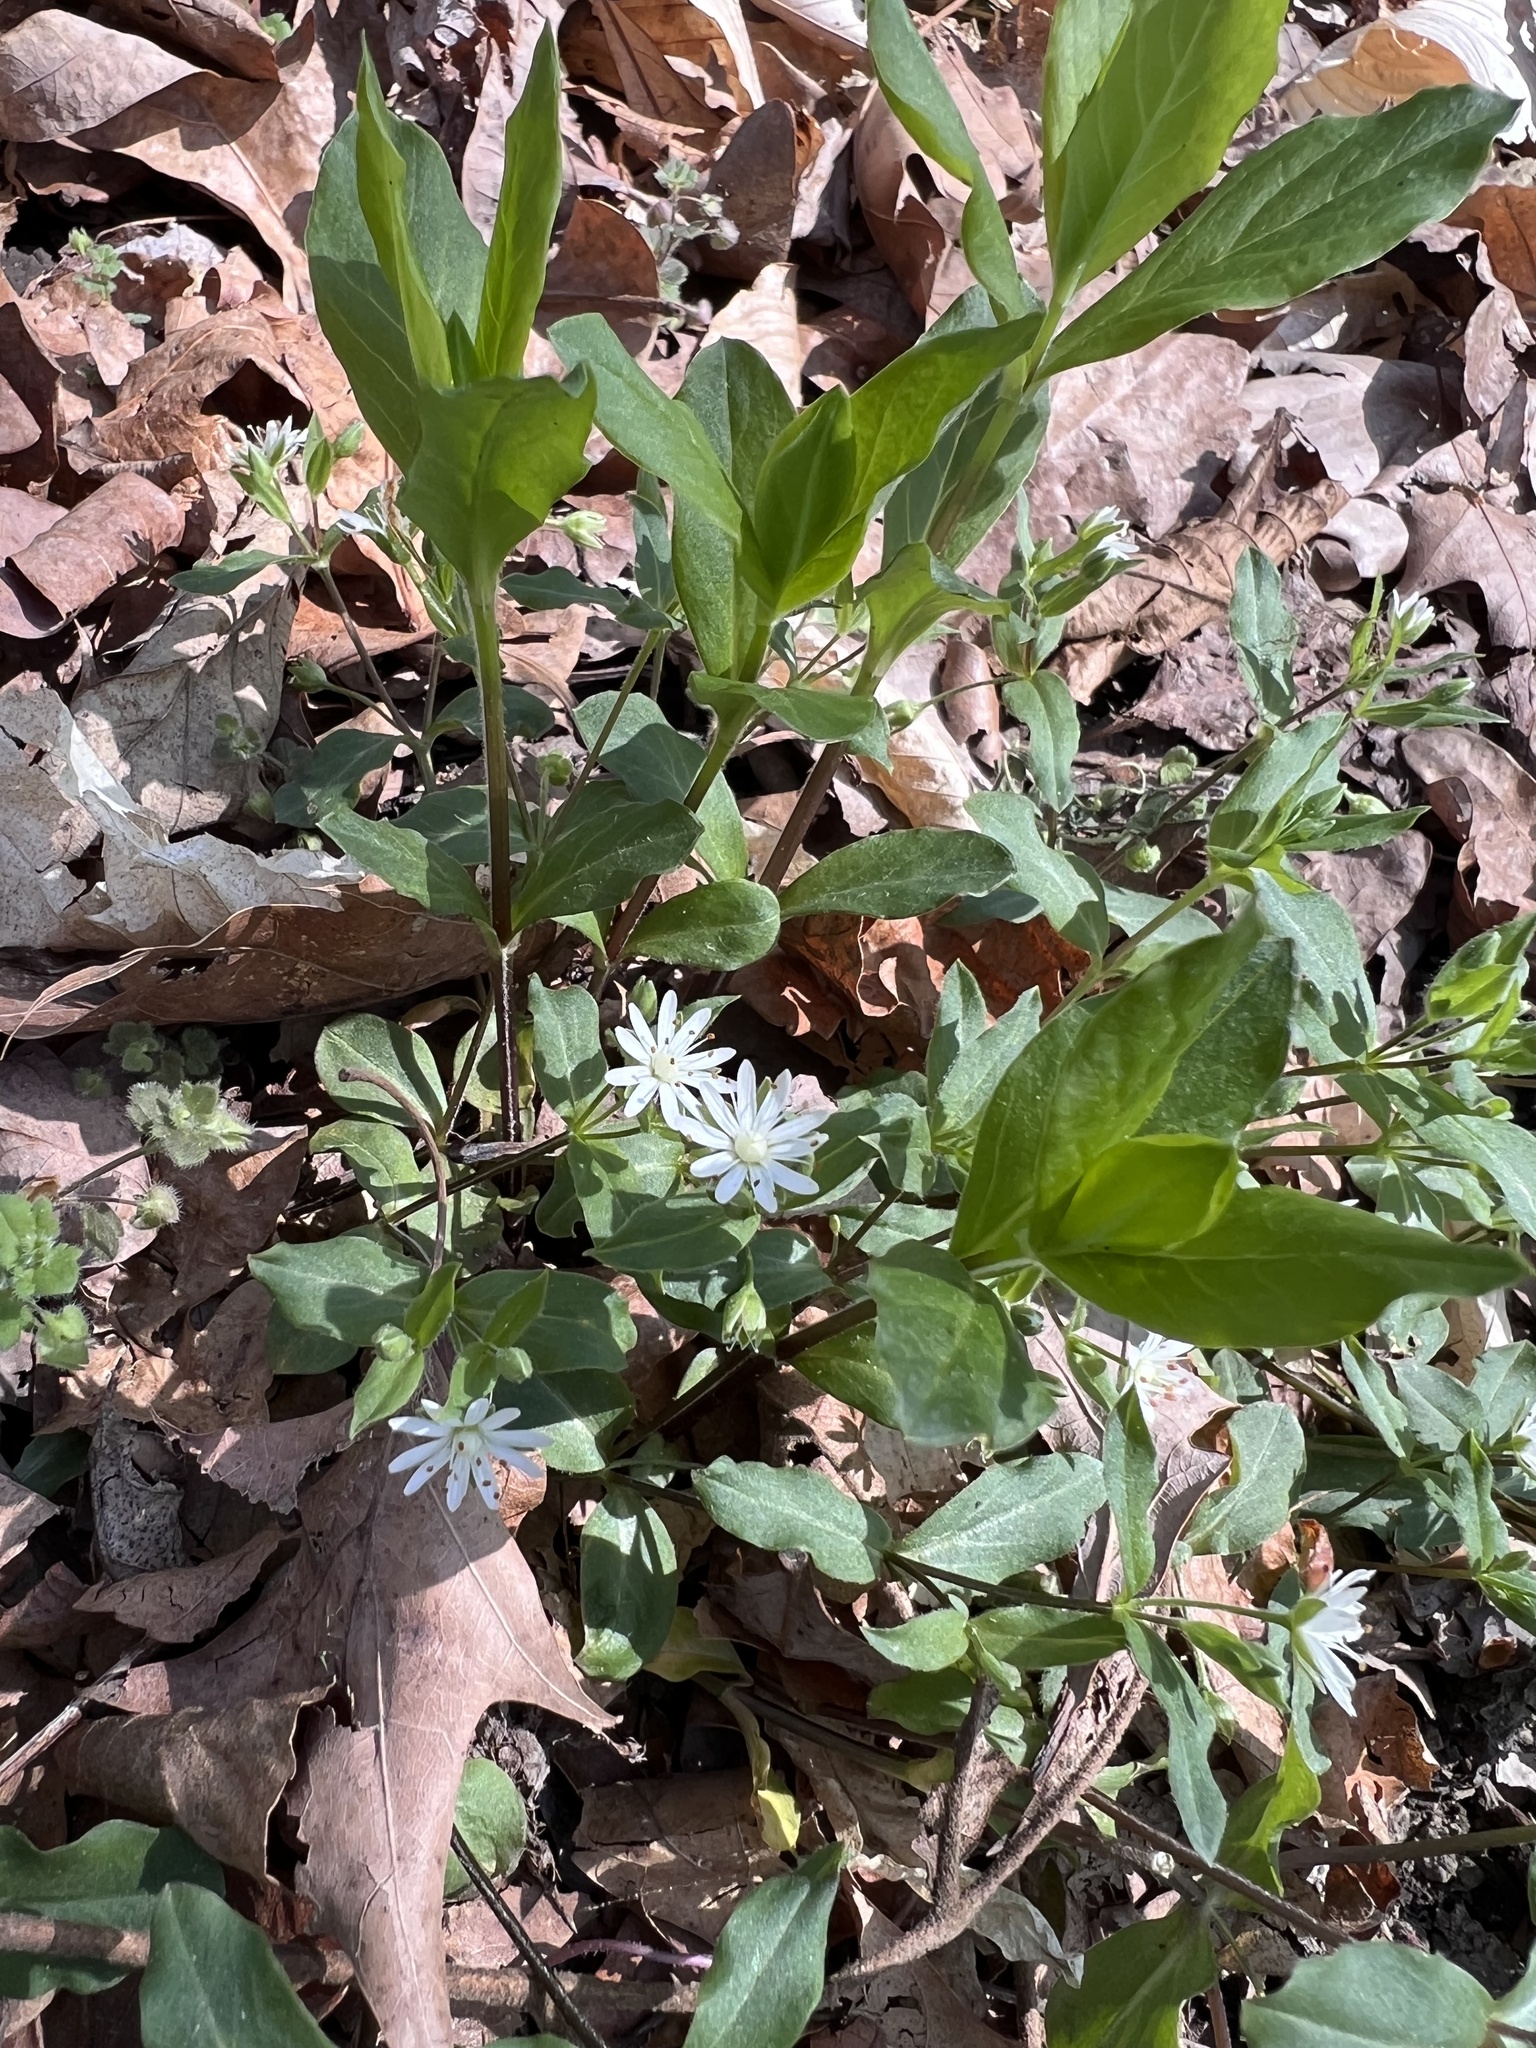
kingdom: Plantae
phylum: Tracheophyta
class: Magnoliopsida
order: Caryophyllales
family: Caryophyllaceae
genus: Stellaria
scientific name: Stellaria pubera
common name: Star chickweed
